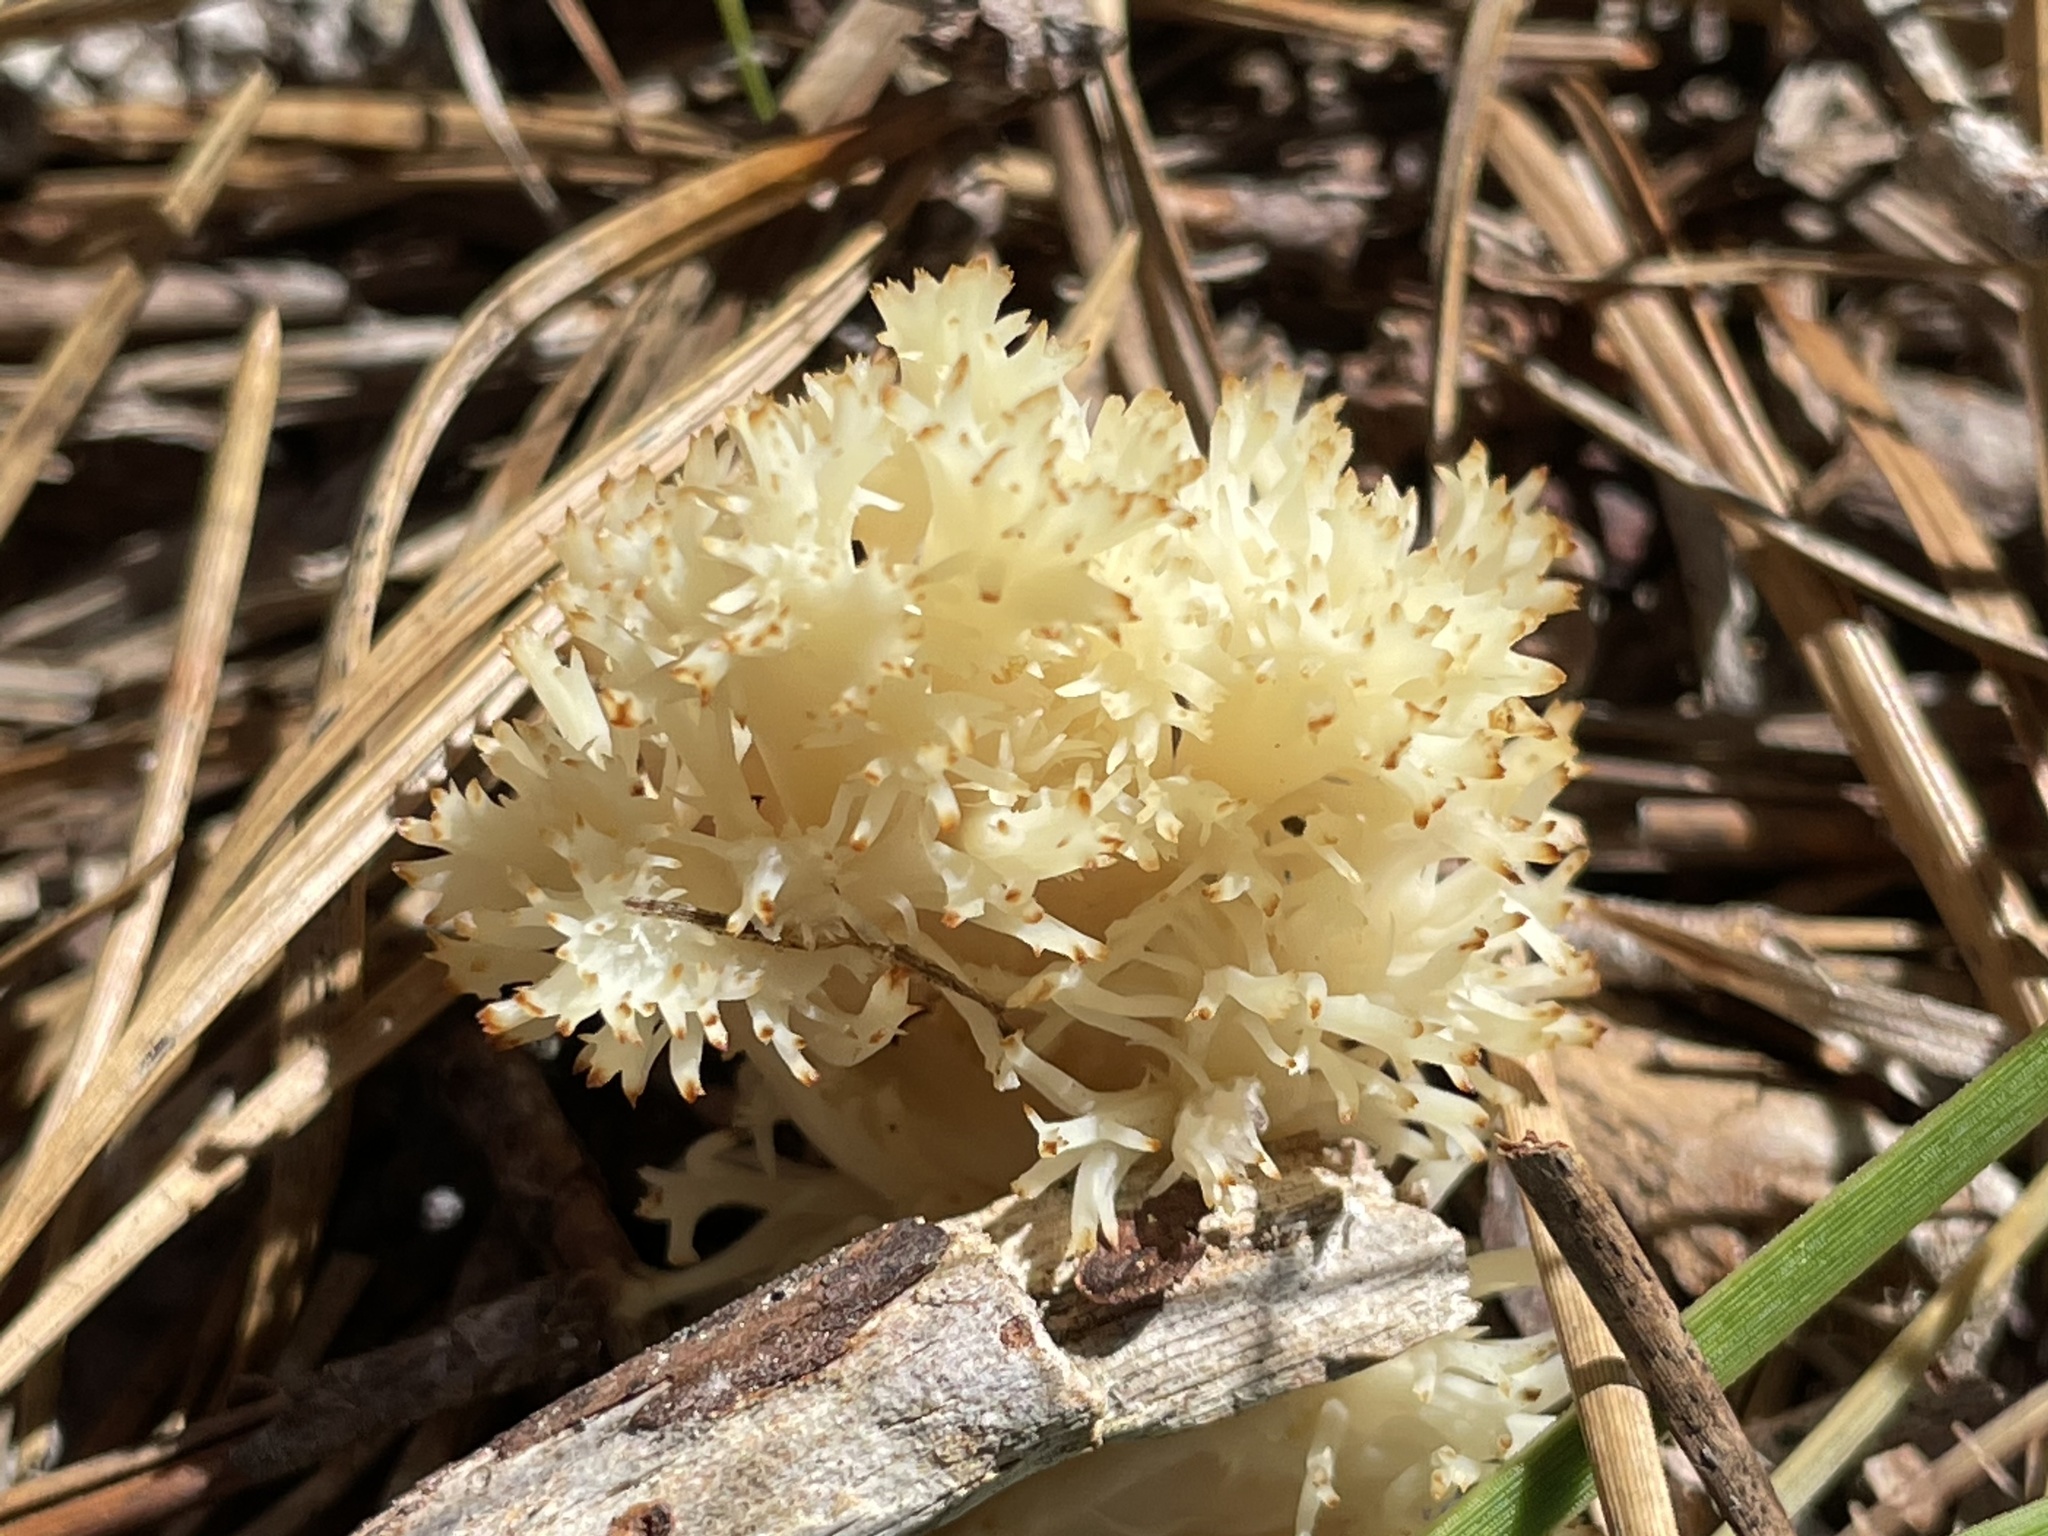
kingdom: Fungi
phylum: Basidiomycota
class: Agaricomycetes
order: Cantharellales
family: Hydnaceae
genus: Clavulina
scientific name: Clavulina coralloides
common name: Crested coral
